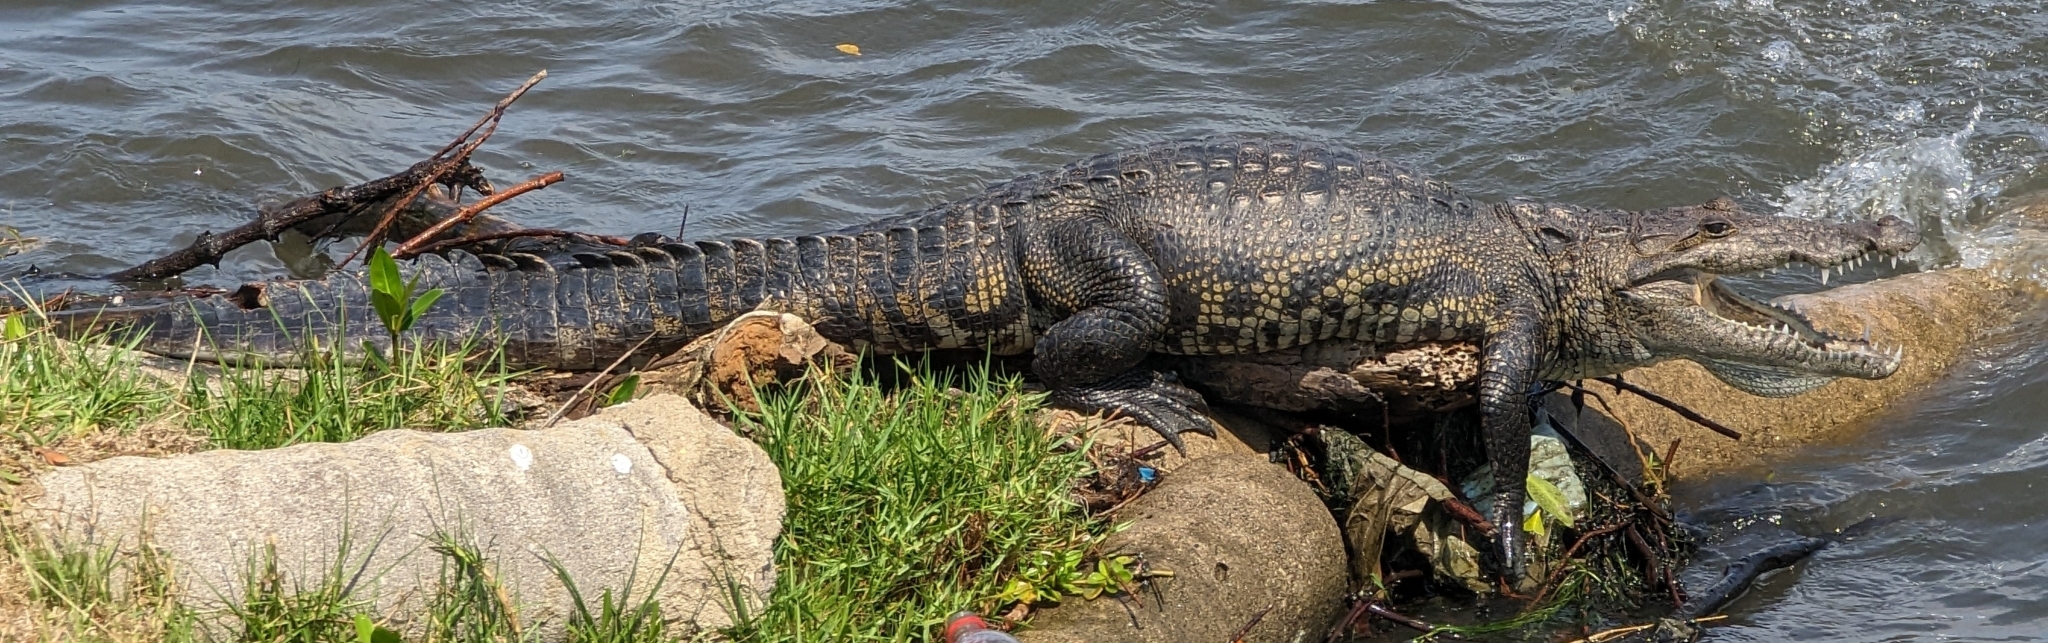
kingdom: Animalia
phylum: Chordata
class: Crocodylia
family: Crocodylidae
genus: Crocodylus
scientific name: Crocodylus moreletii
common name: Morelet's crocodile
